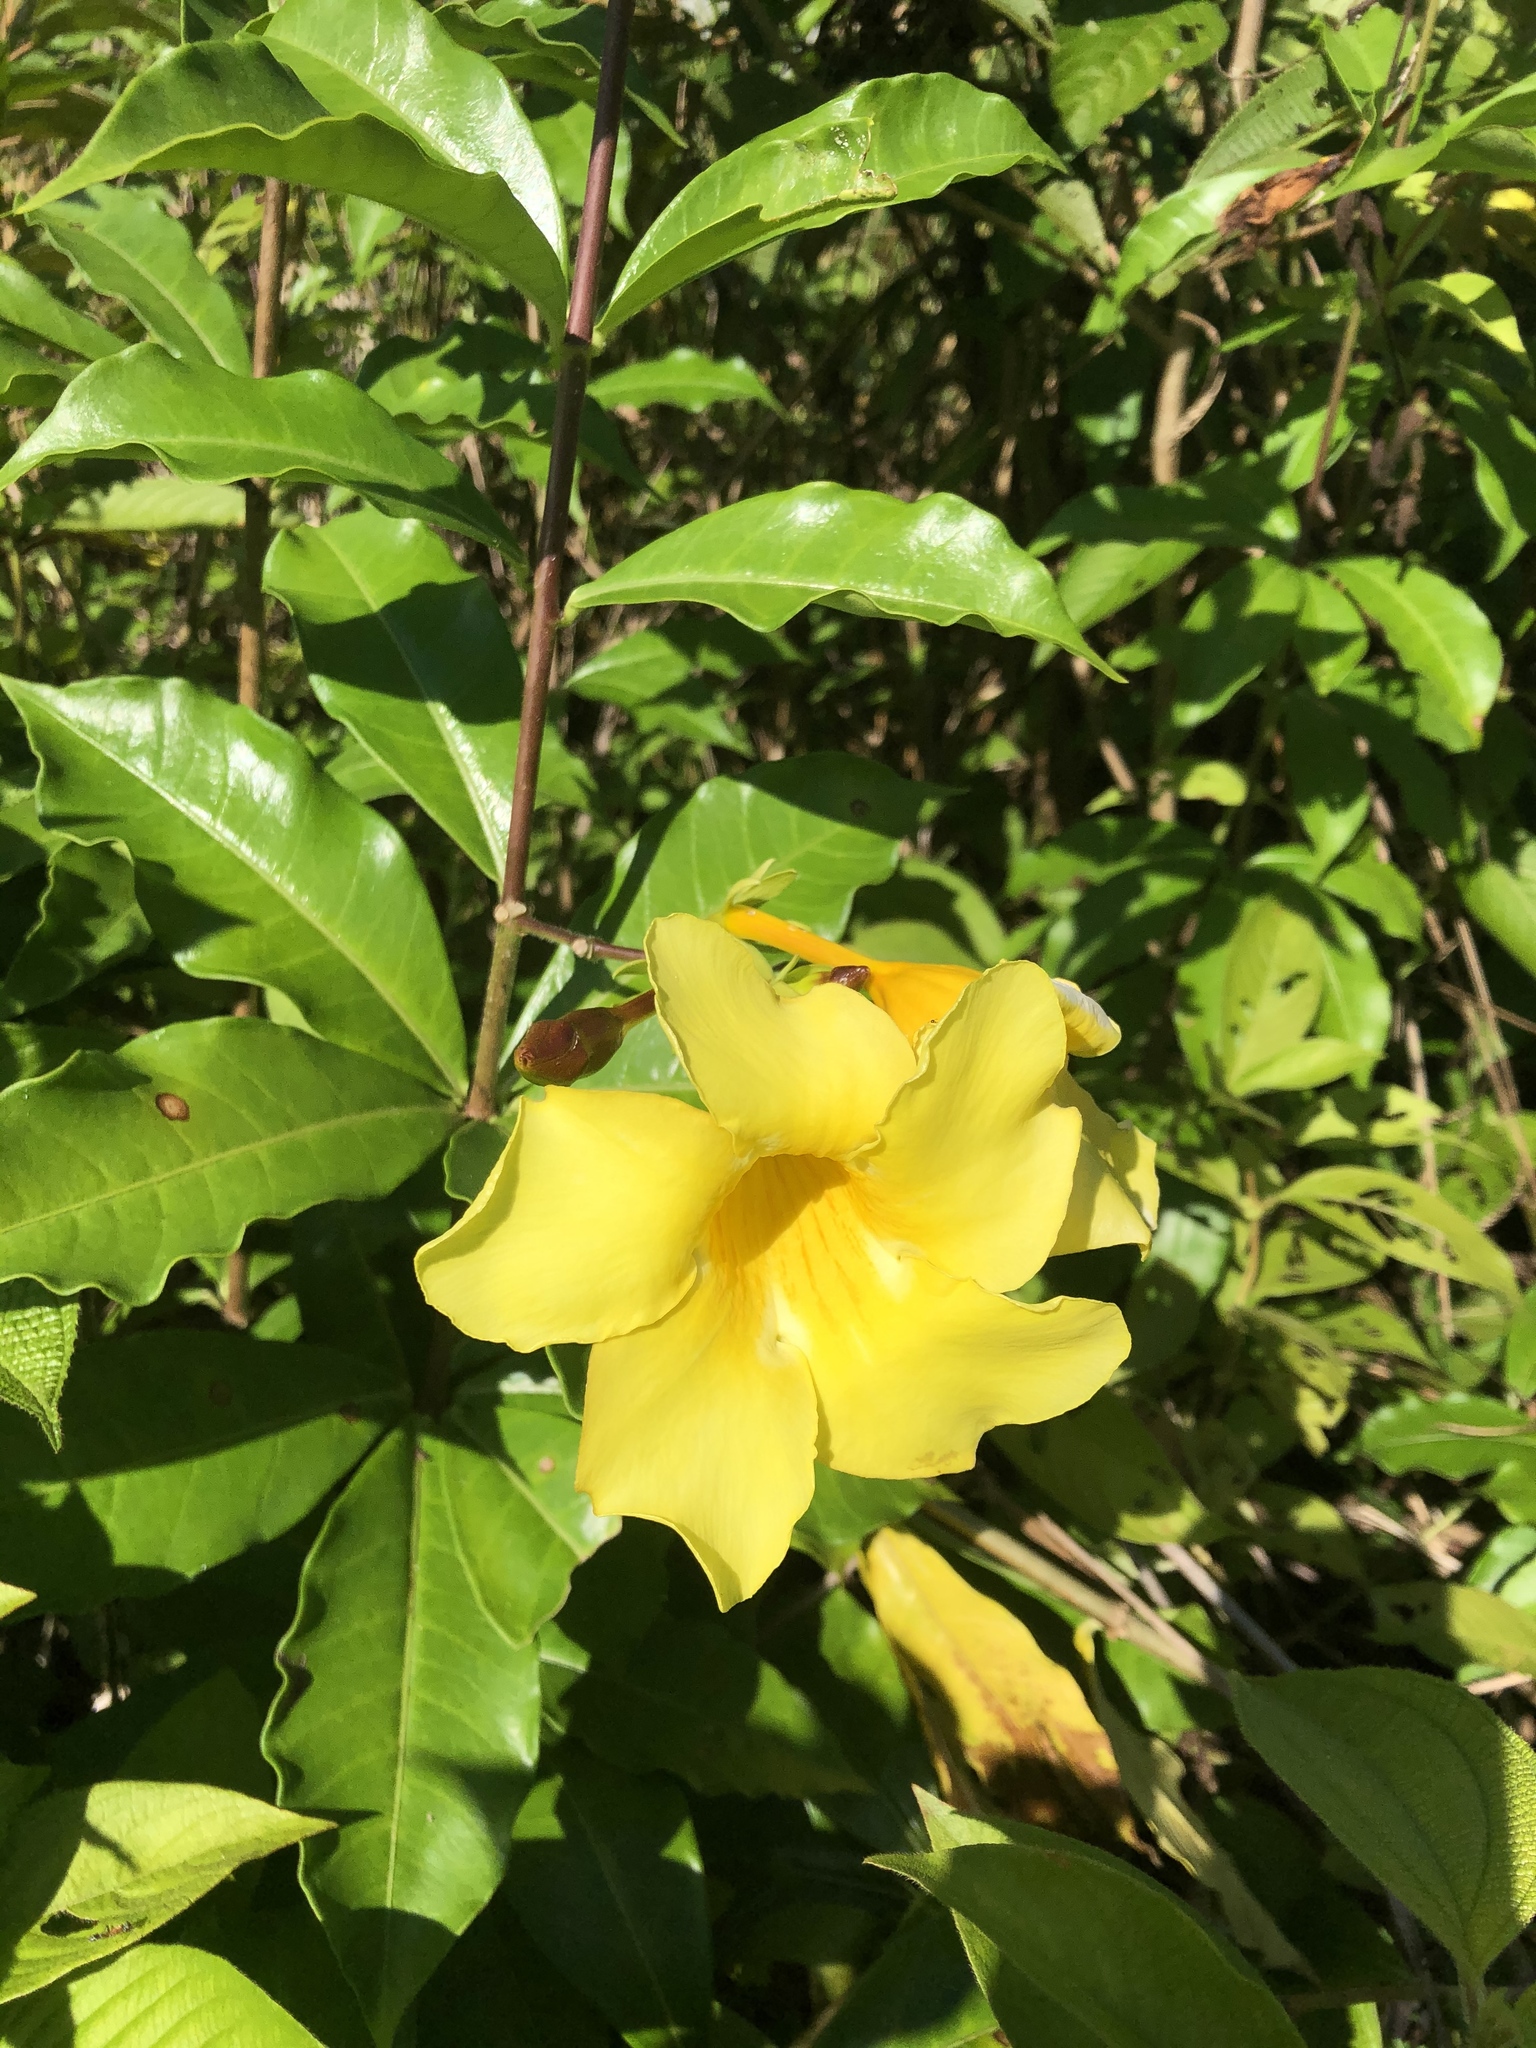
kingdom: Plantae
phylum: Tracheophyta
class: Magnoliopsida
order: Gentianales
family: Apocynaceae
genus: Allamanda
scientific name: Allamanda cathartica
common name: Golden trumpet
